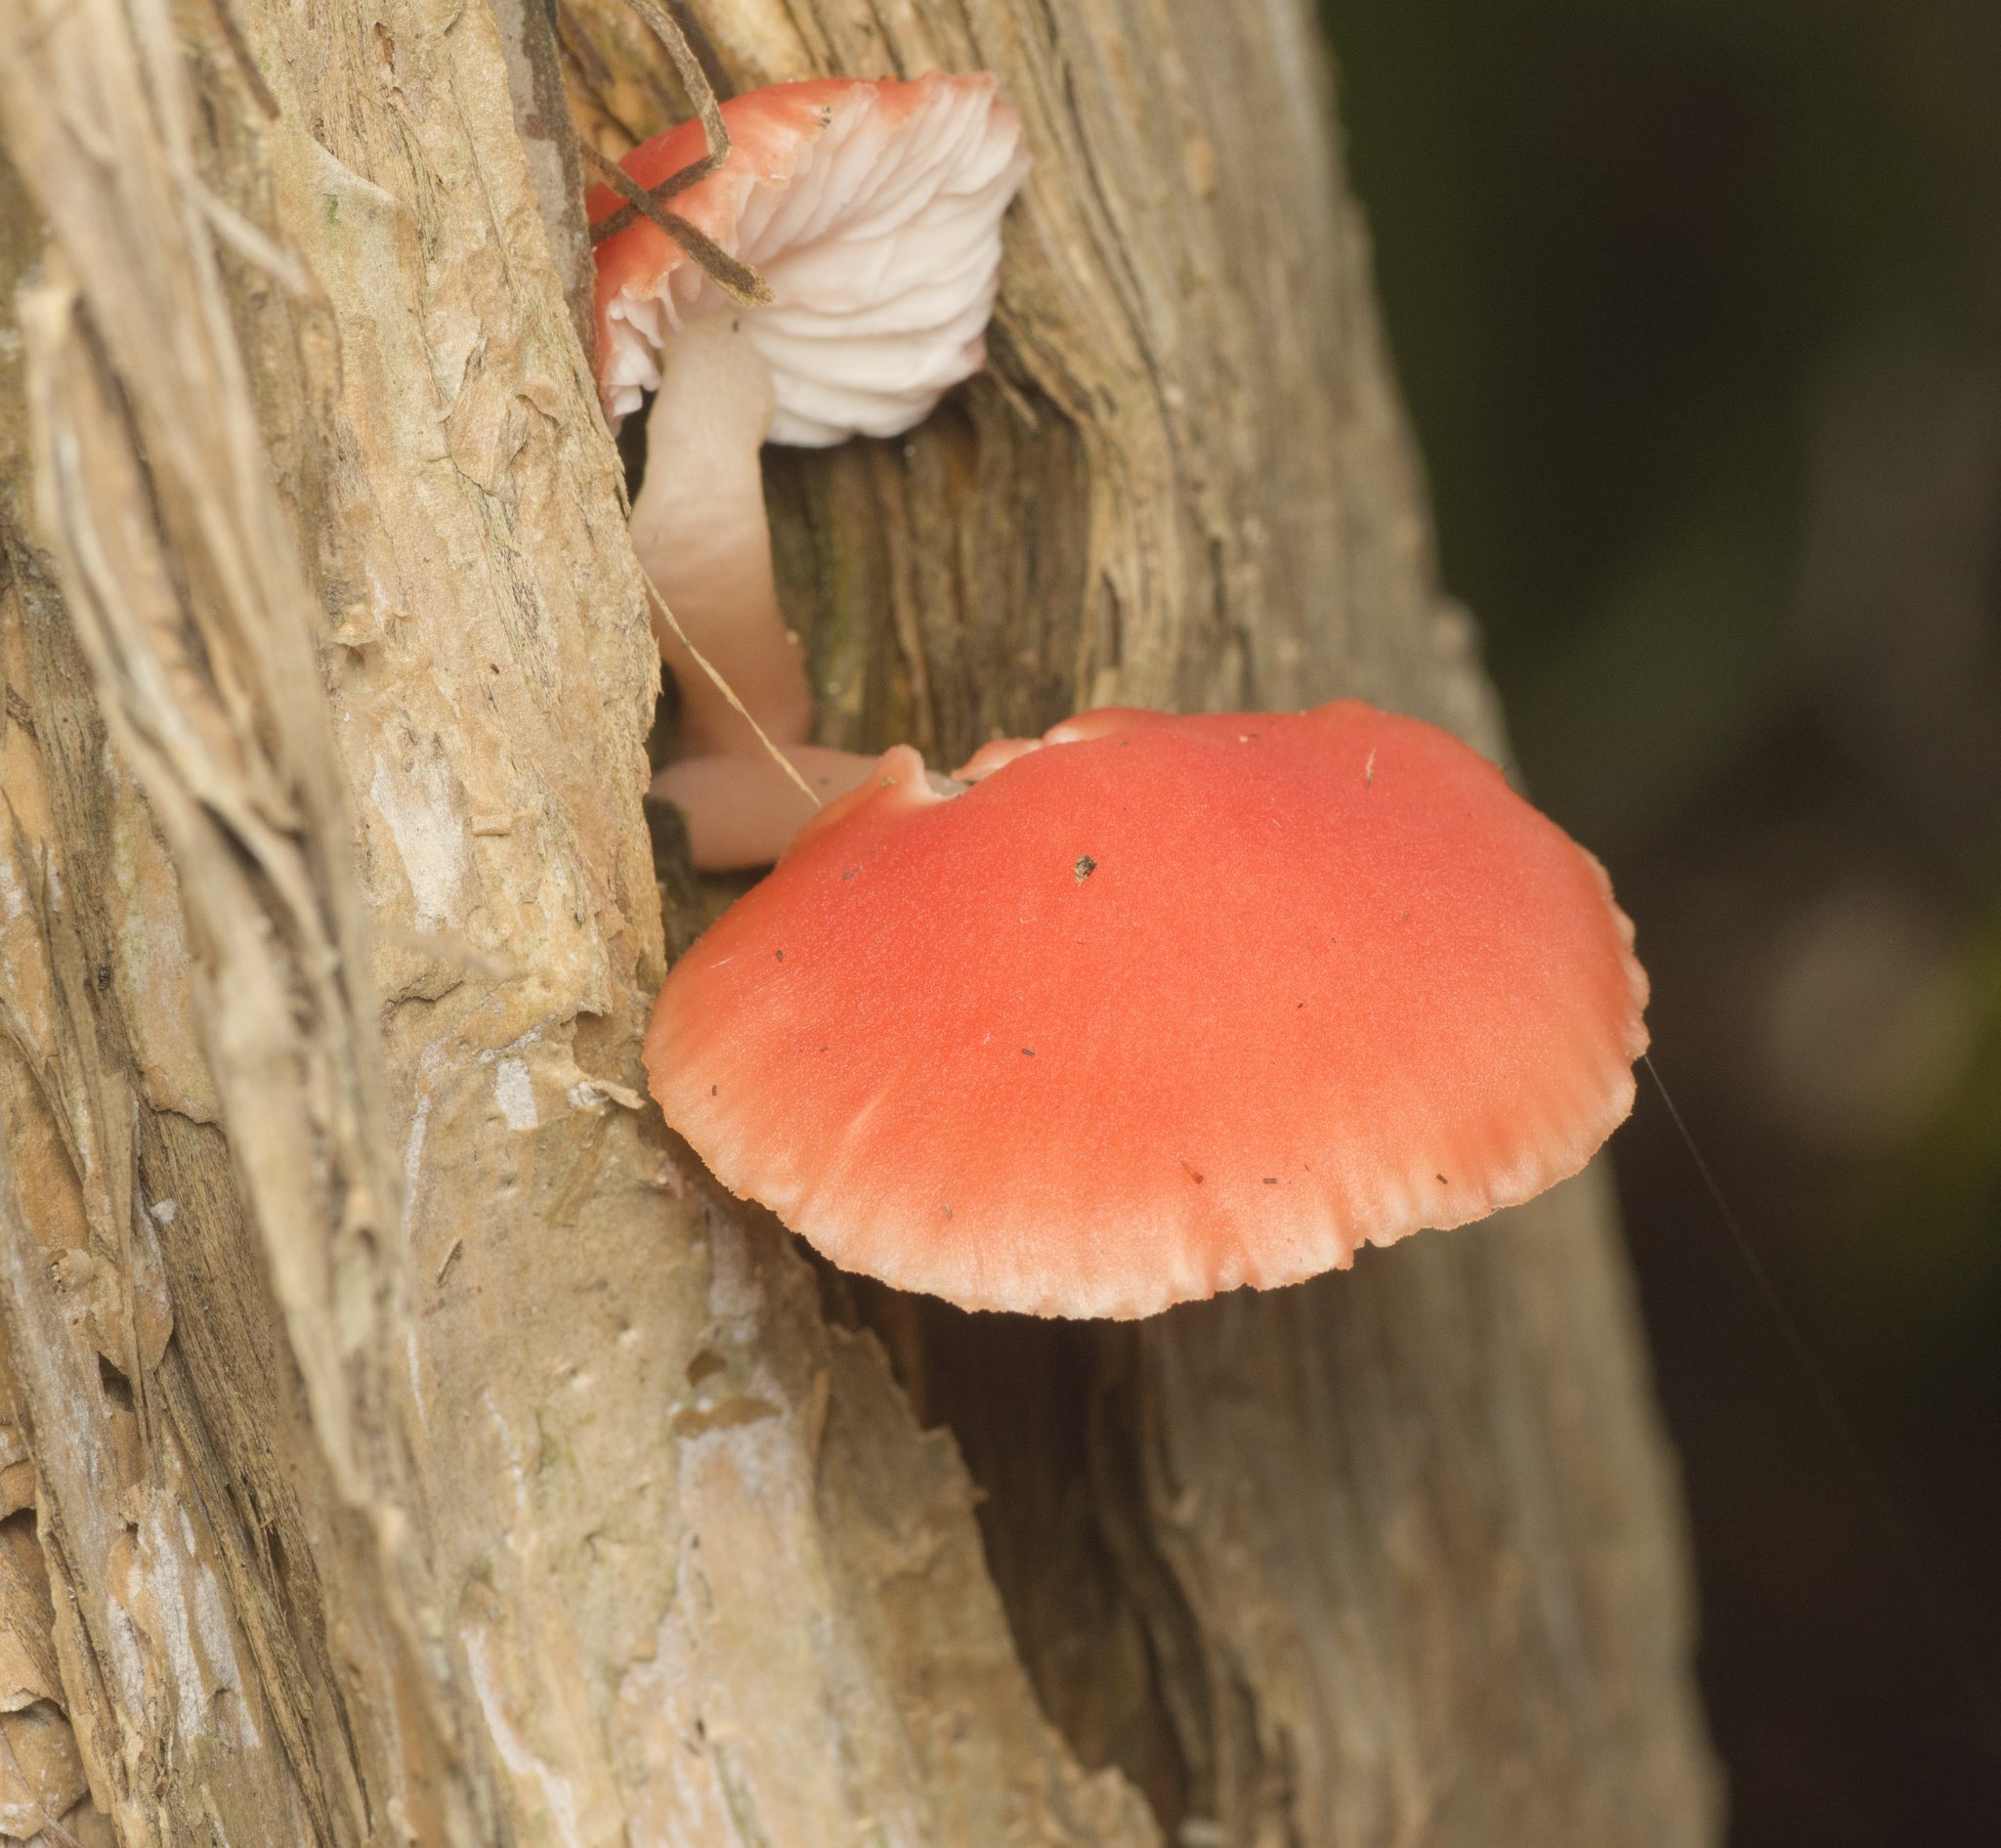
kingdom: Fungi
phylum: Basidiomycota
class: Agaricomycetes
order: Agaricales
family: Mycenaceae
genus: Mycena
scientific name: Mycena roseilignicola
